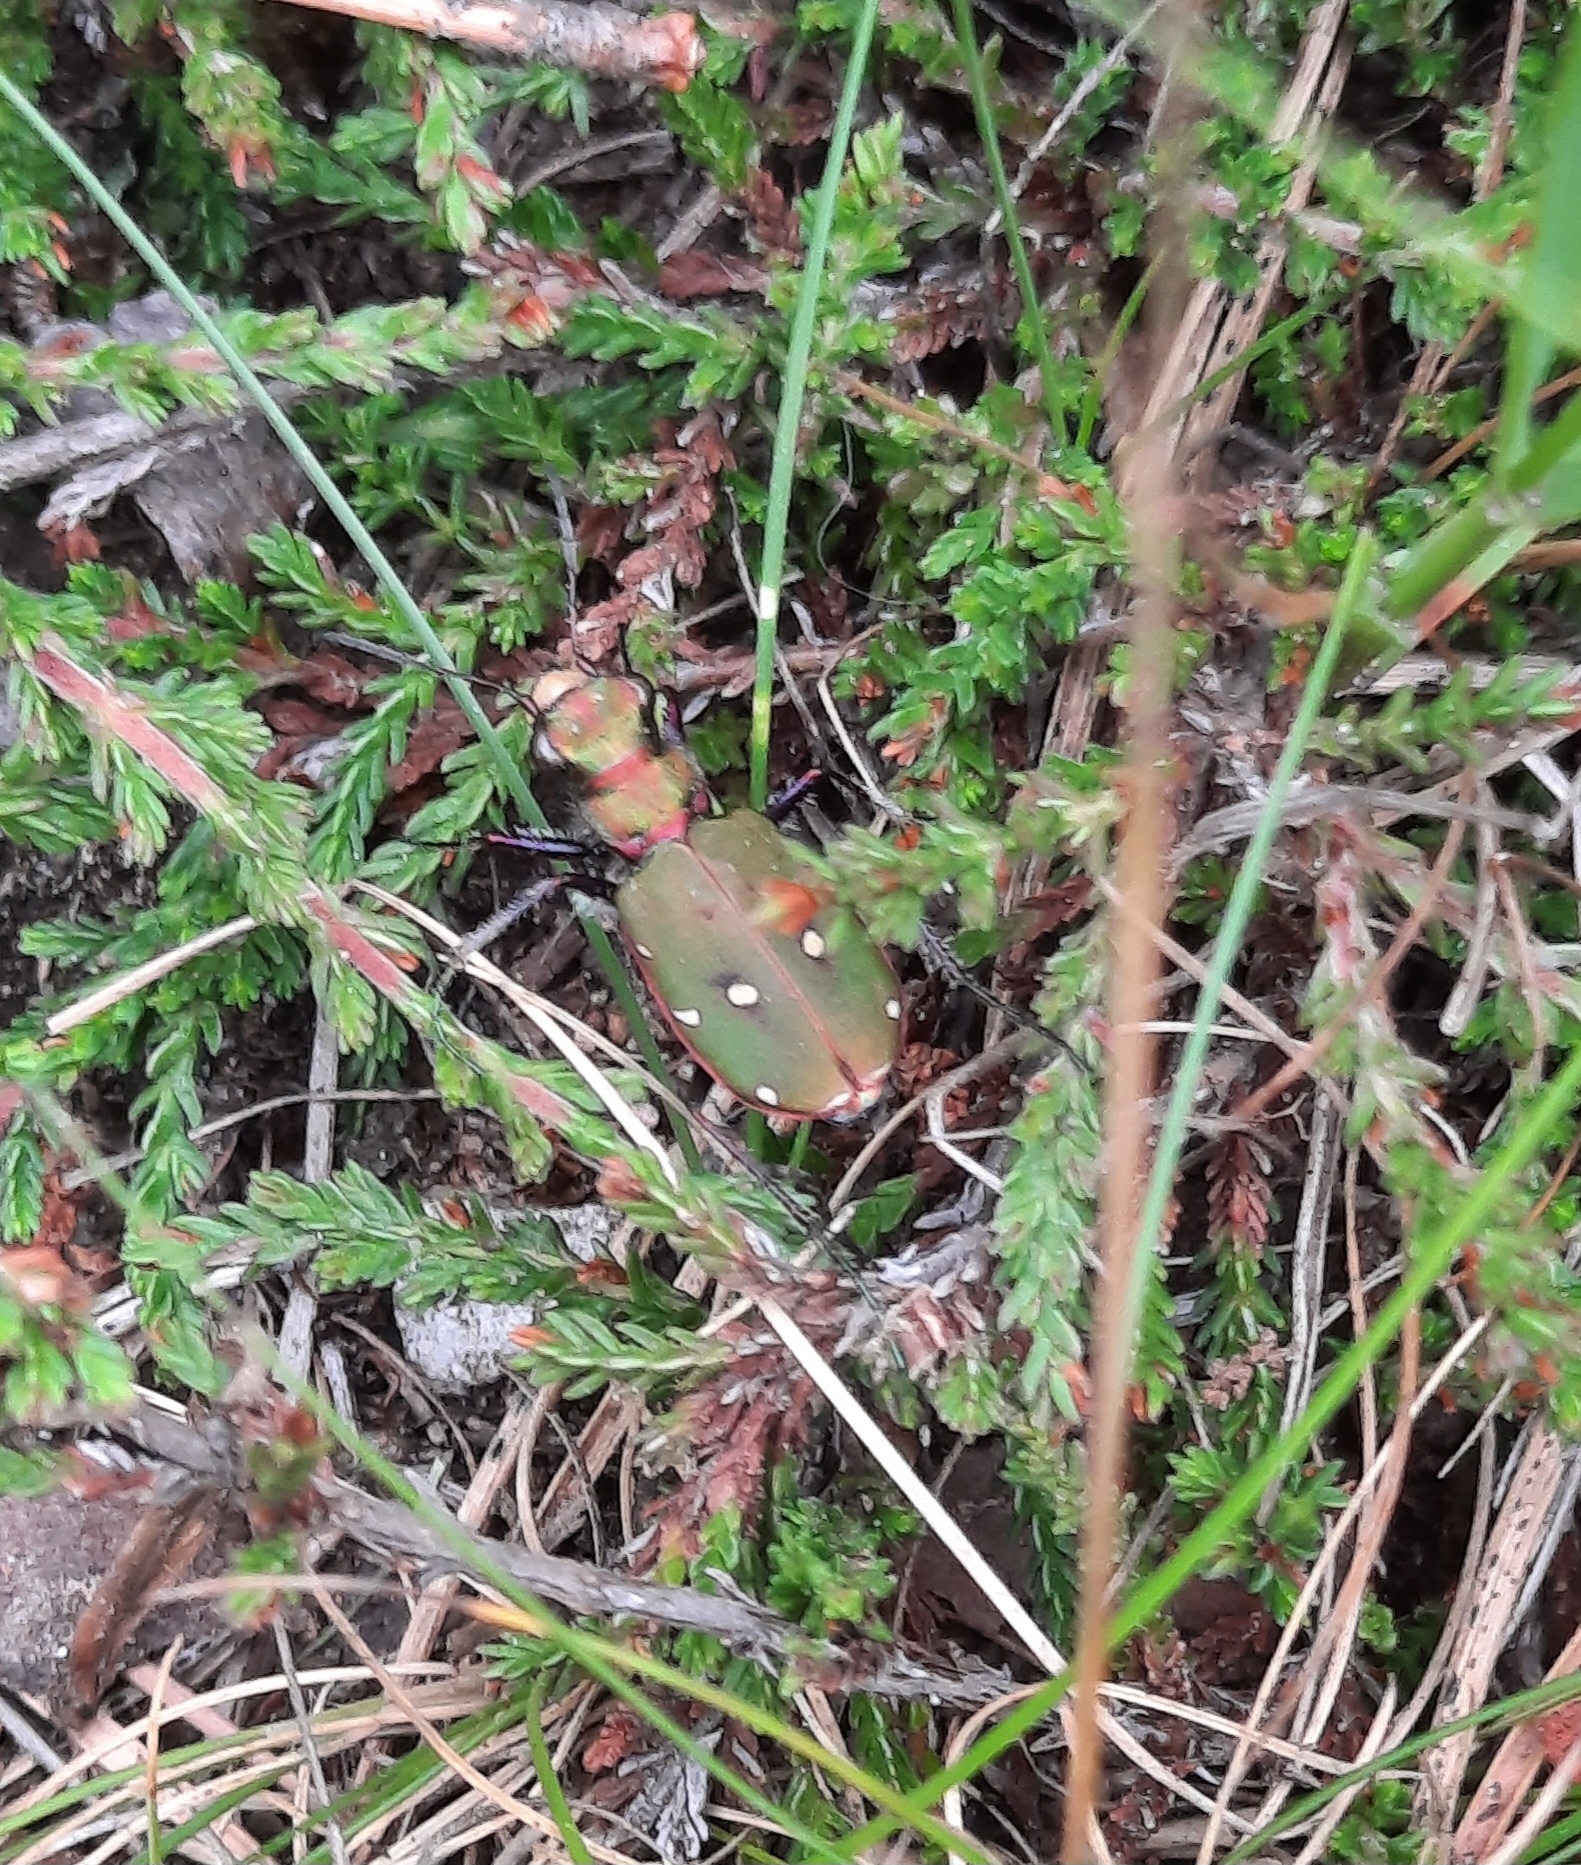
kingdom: Animalia
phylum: Arthropoda
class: Insecta
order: Coleoptera
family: Carabidae
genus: Cicindela
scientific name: Cicindela campestris
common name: Common tiger beetle
